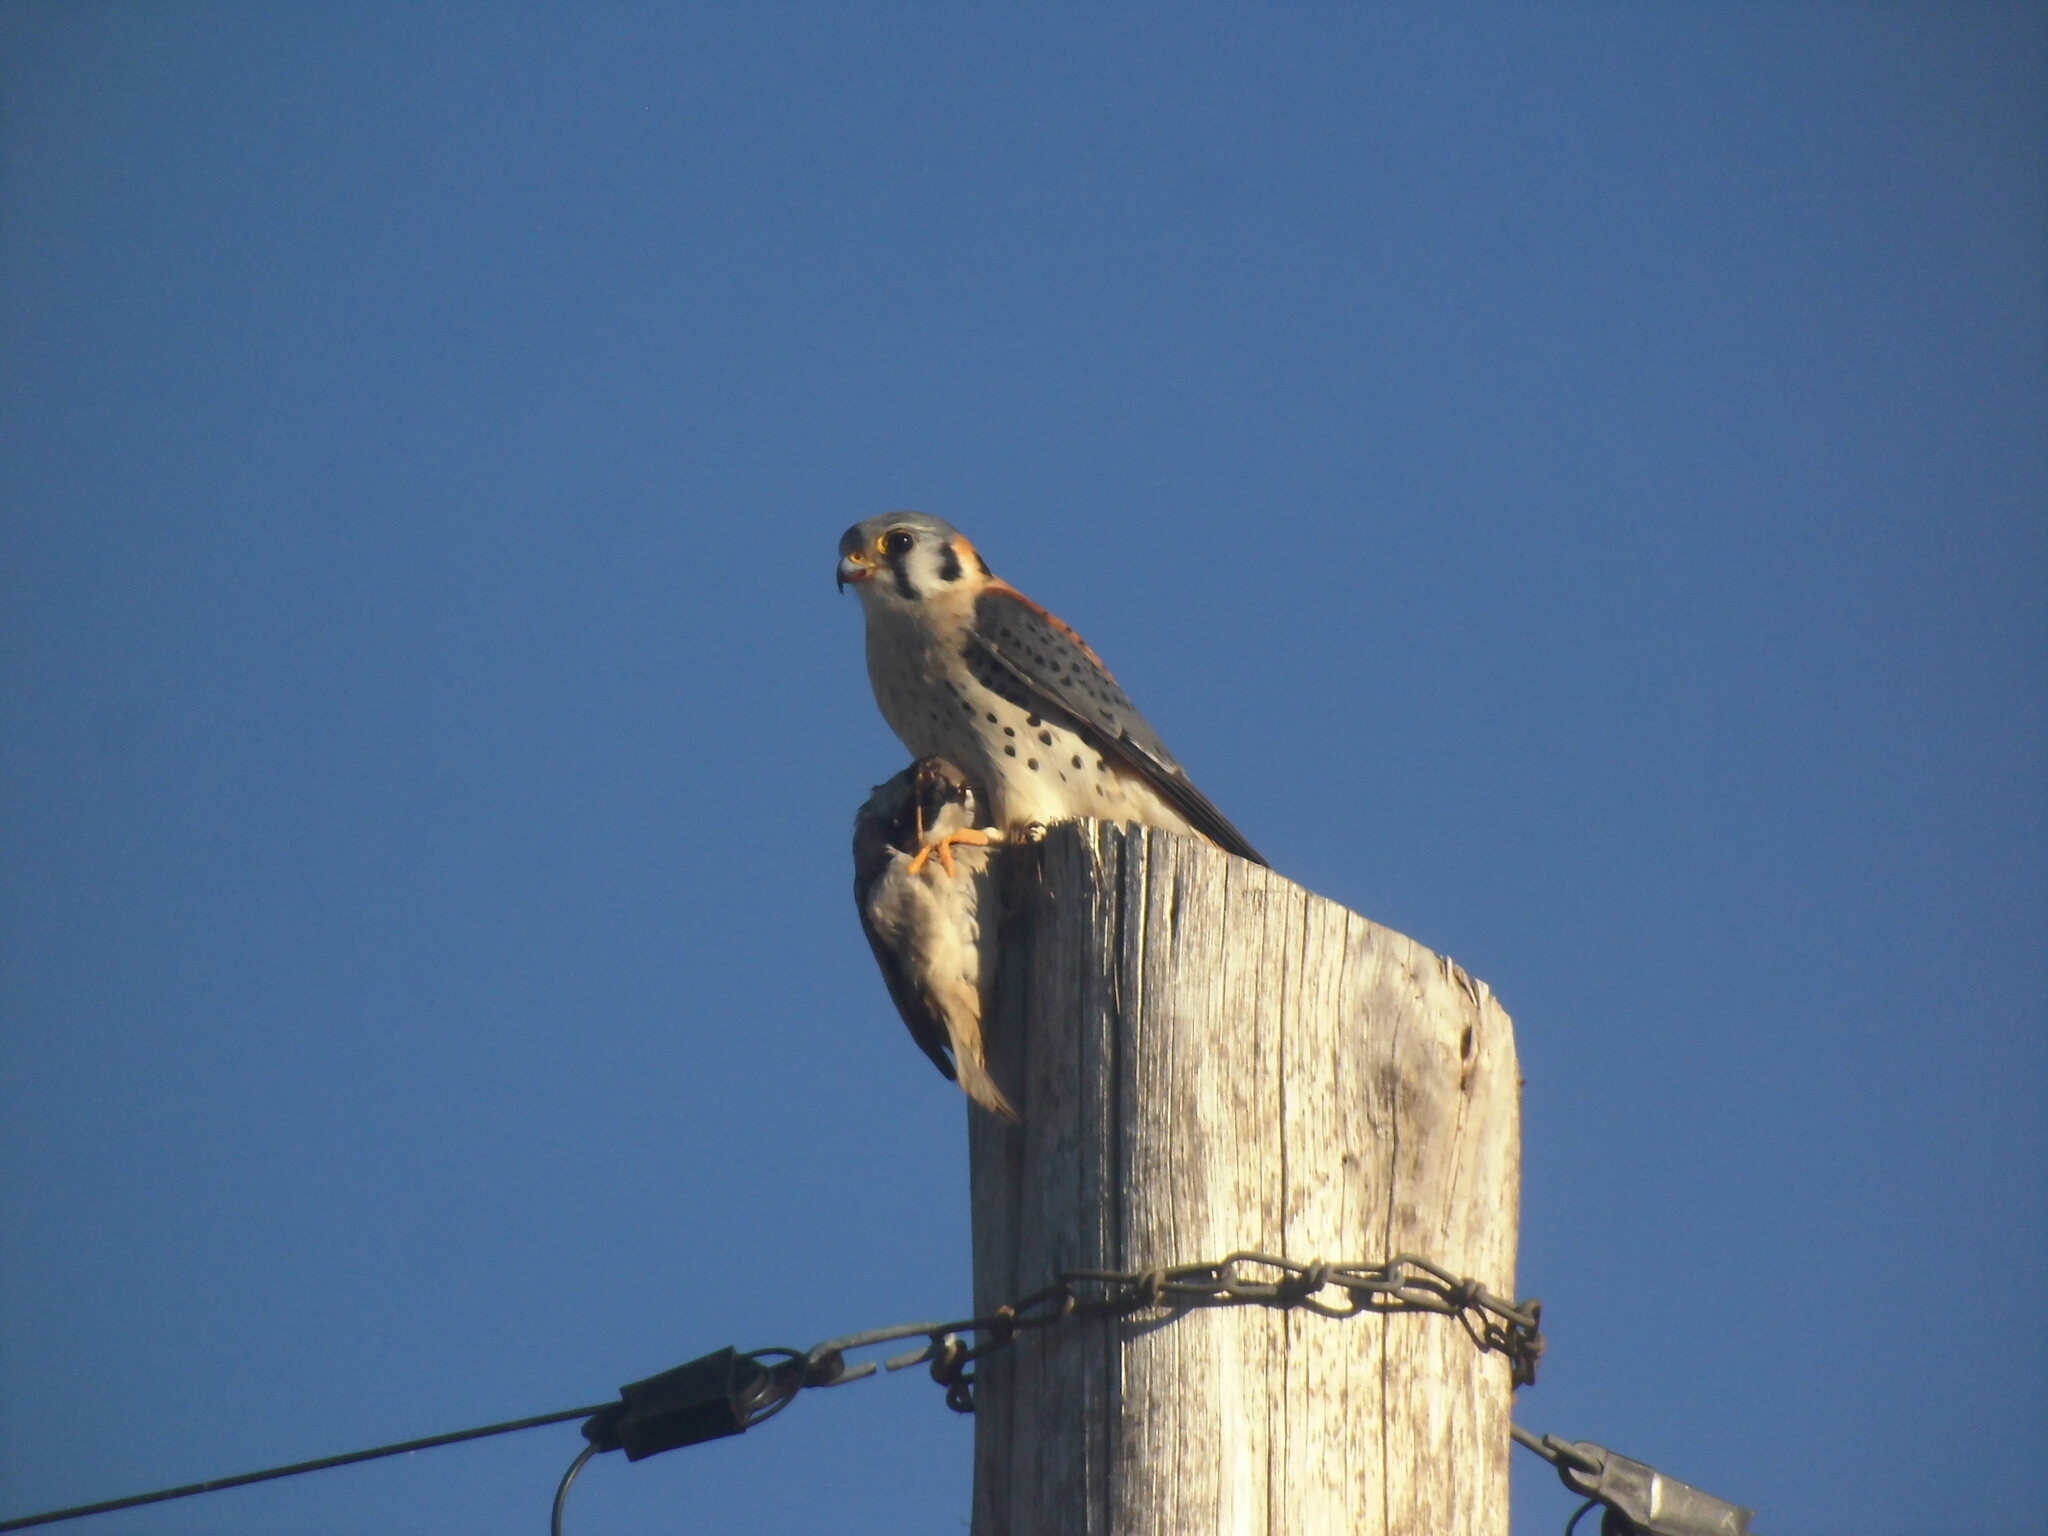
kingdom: Animalia
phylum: Chordata
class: Aves
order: Falconiformes
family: Falconidae
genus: Falco
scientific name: Falco sparverius
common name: American kestrel
